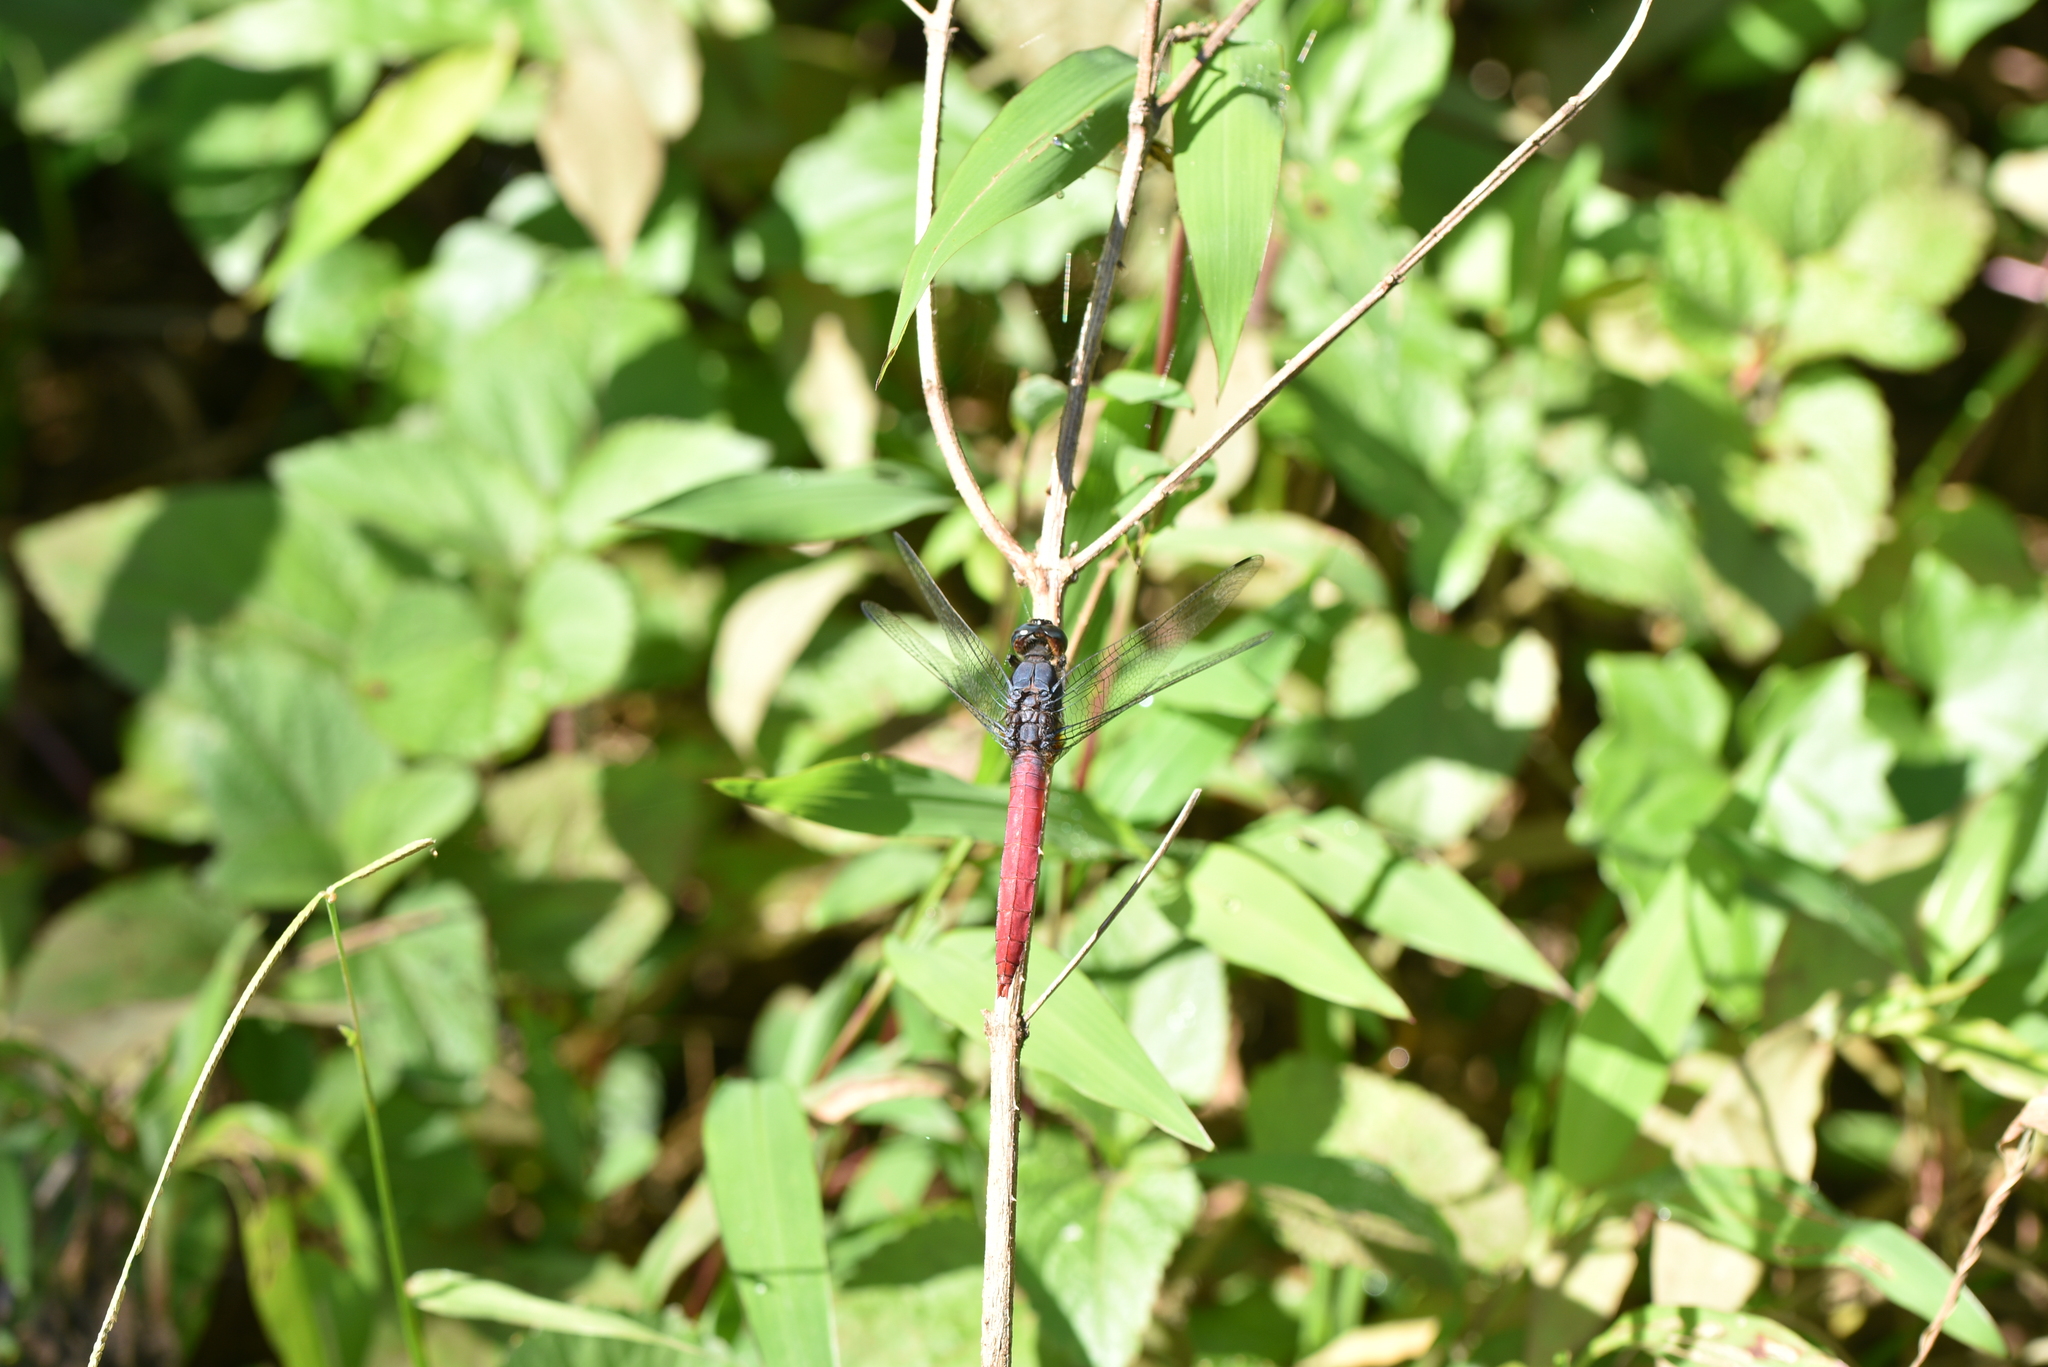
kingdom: Animalia
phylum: Arthropoda
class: Insecta
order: Odonata
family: Libellulidae
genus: Orthetrum
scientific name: Orthetrum pruinosum
